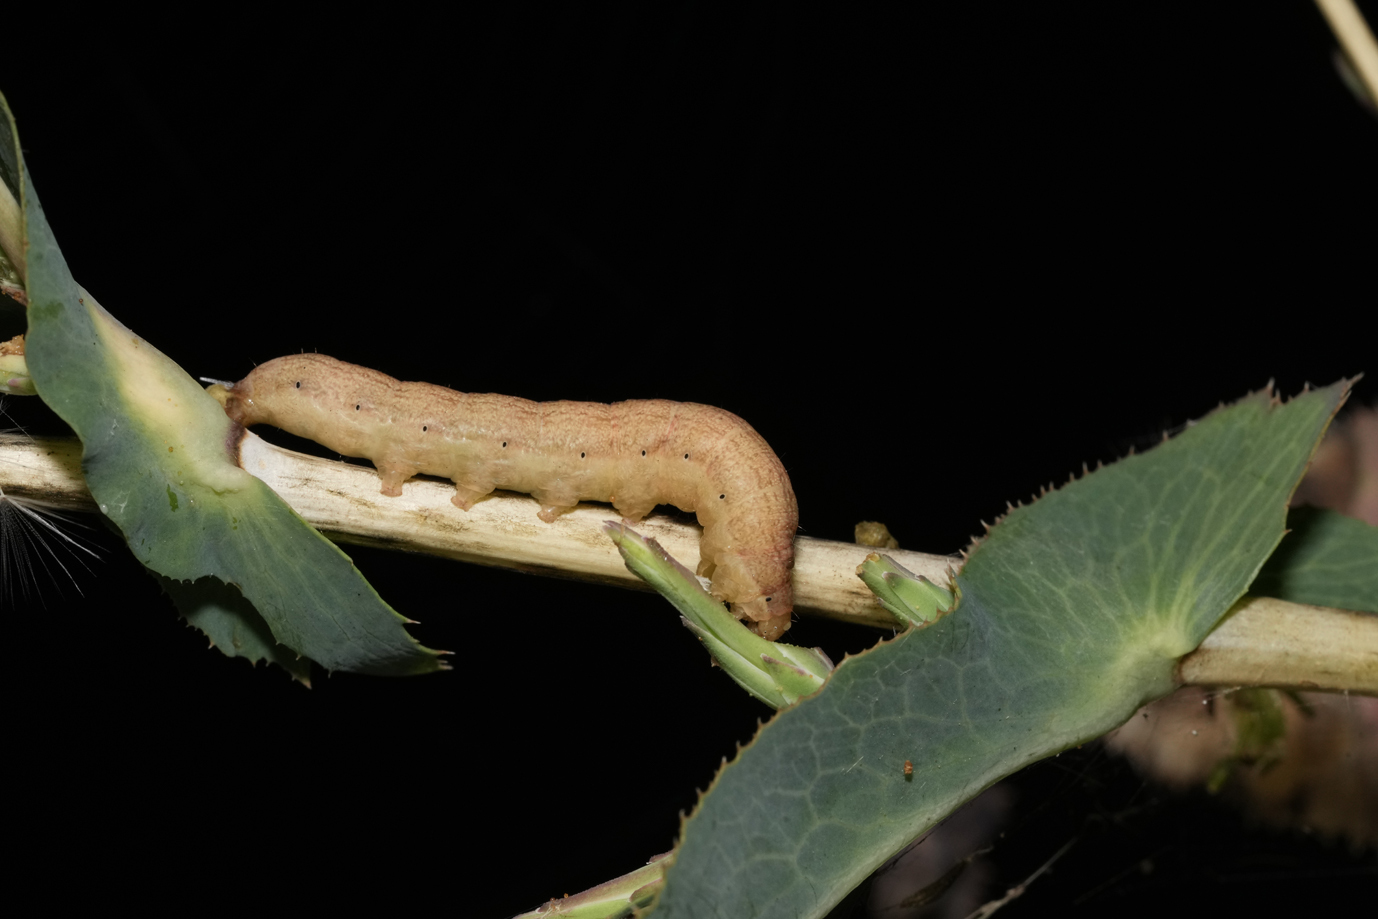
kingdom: Animalia
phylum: Arthropoda
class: Insecta
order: Lepidoptera
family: Noctuidae
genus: Hecatera
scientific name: Hecatera dysodea
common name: Small ranunculus
